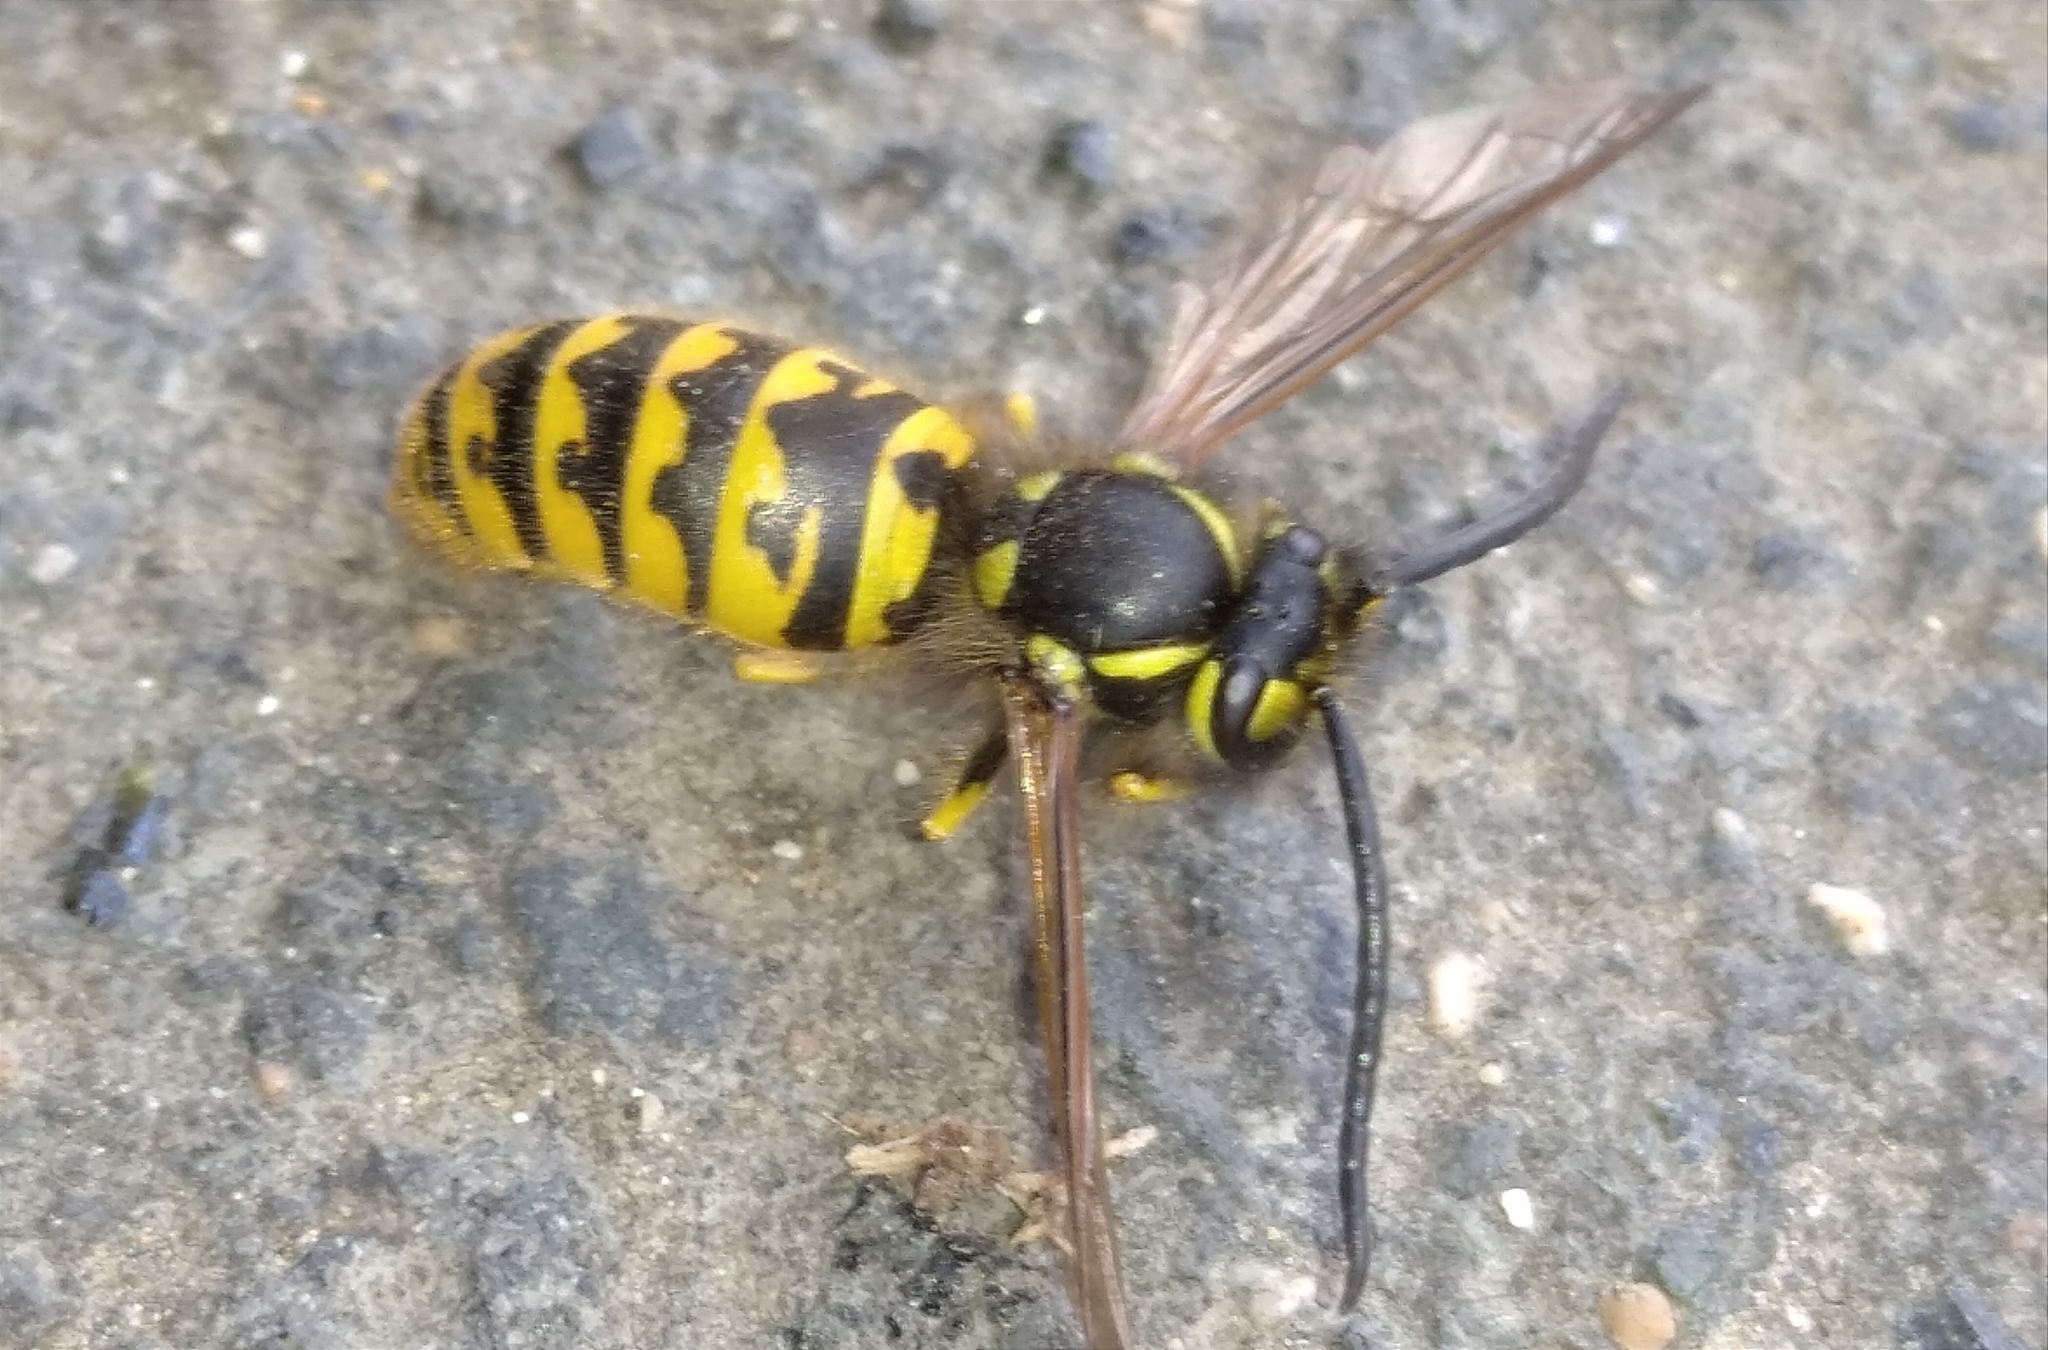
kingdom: Animalia
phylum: Arthropoda
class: Insecta
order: Hymenoptera
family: Vespidae
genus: Vespula
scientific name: Vespula germanica
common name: German wasp
